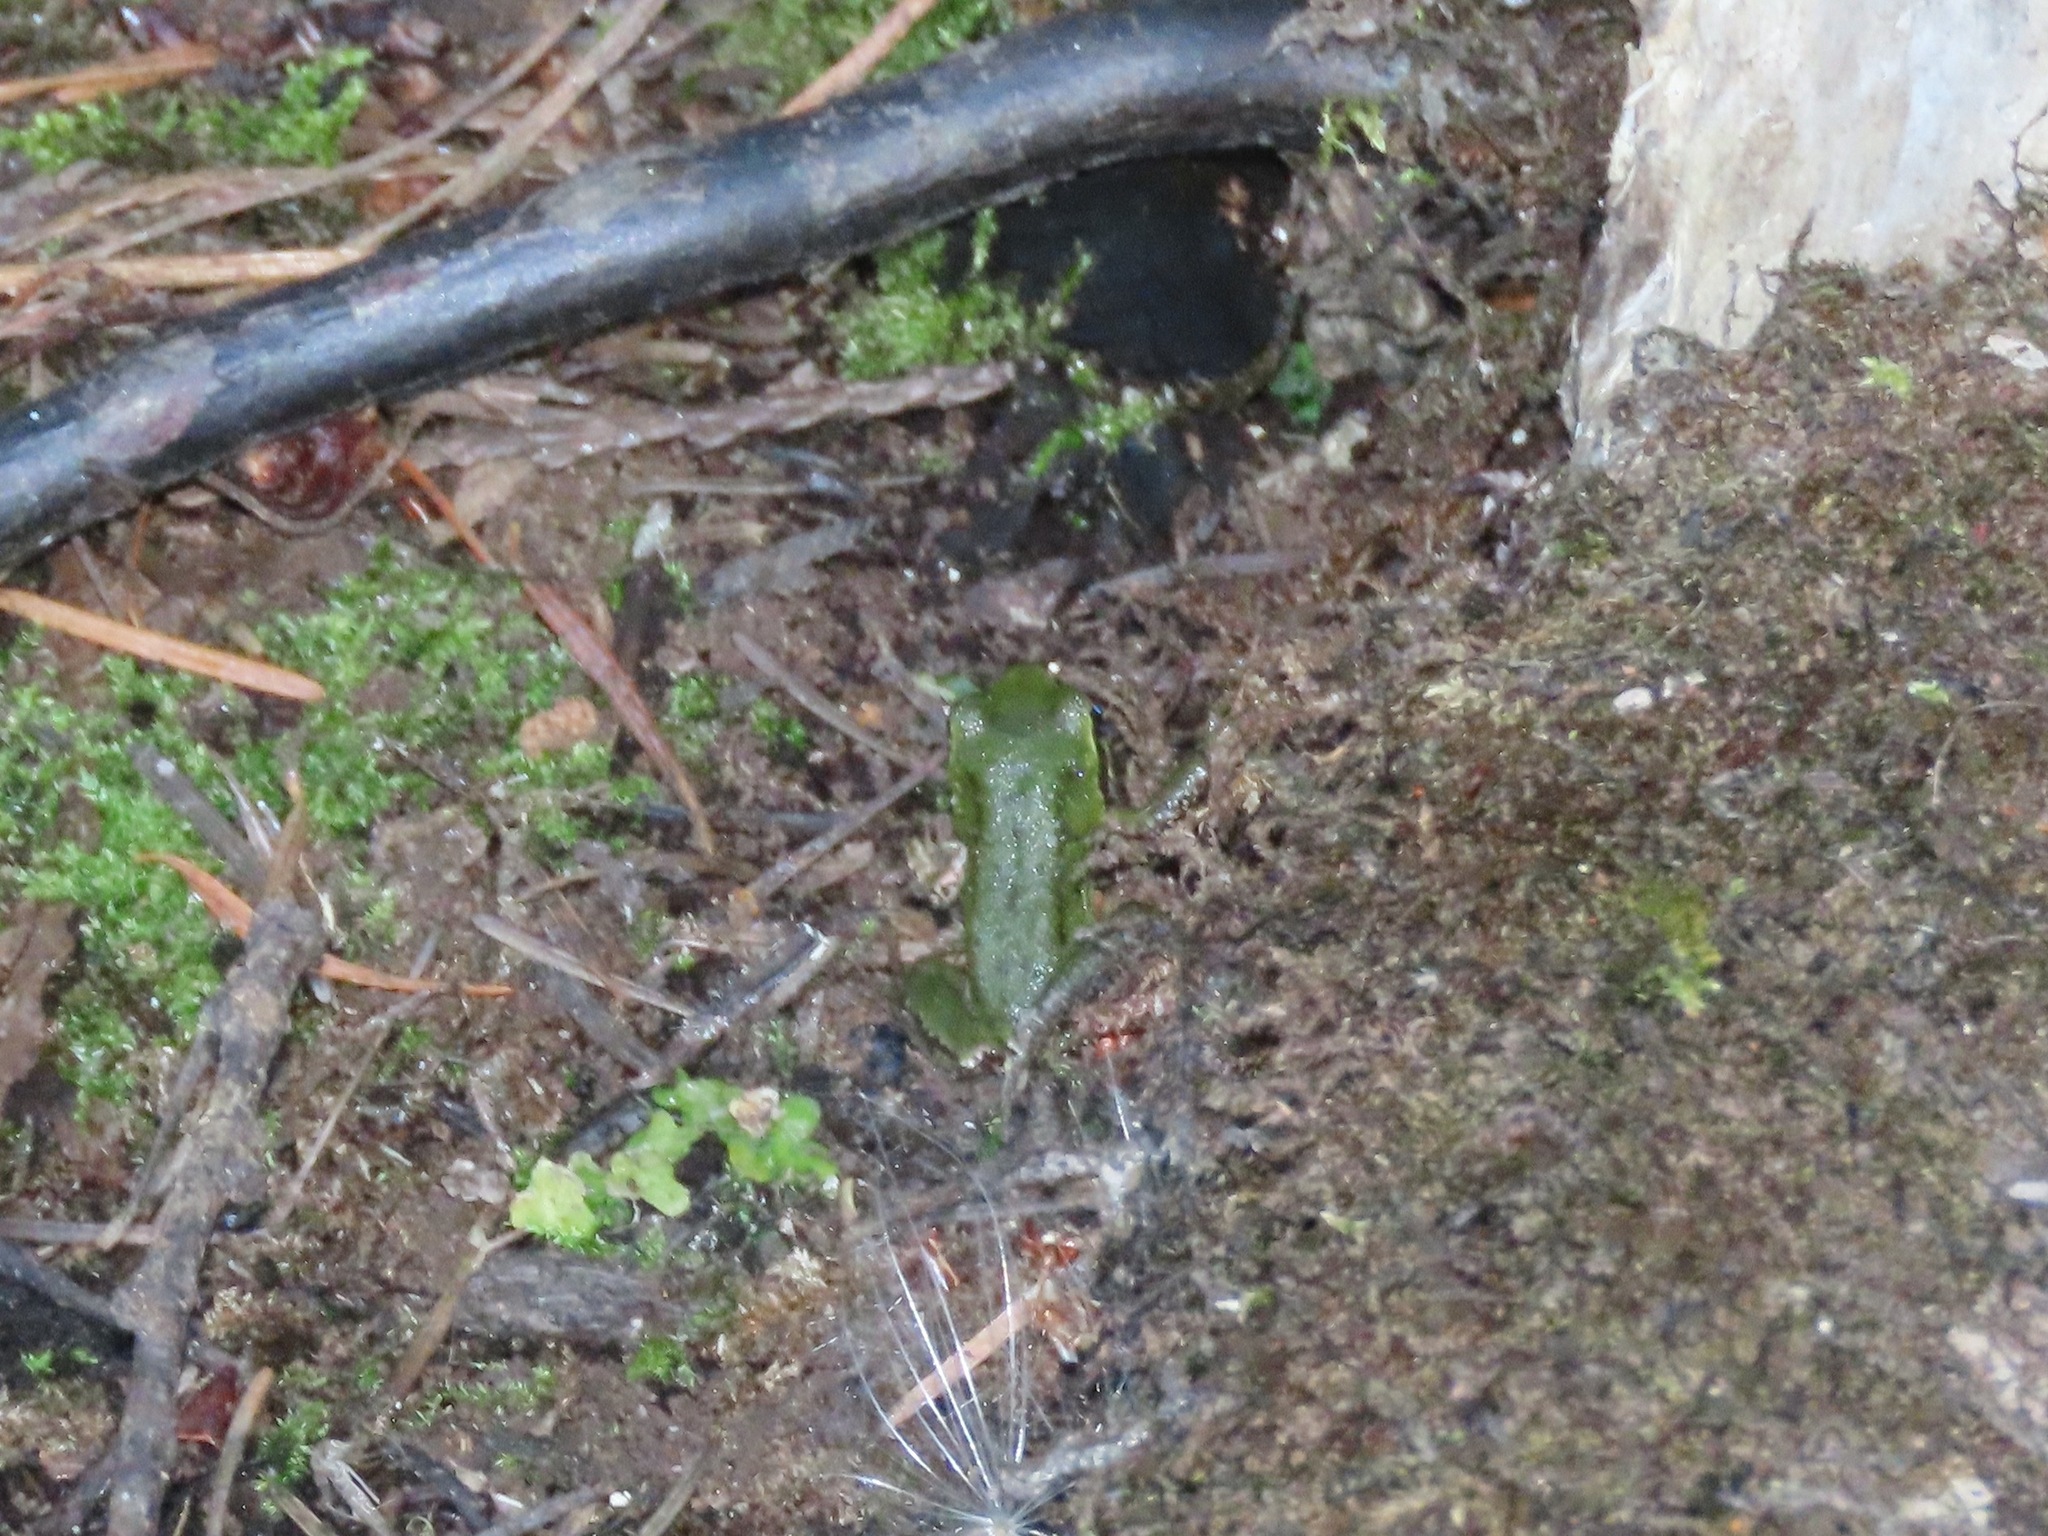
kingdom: Animalia
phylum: Chordata
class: Amphibia
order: Anura
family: Hylidae
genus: Pseudacris
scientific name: Pseudacris regilla
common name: Pacific chorus frog
